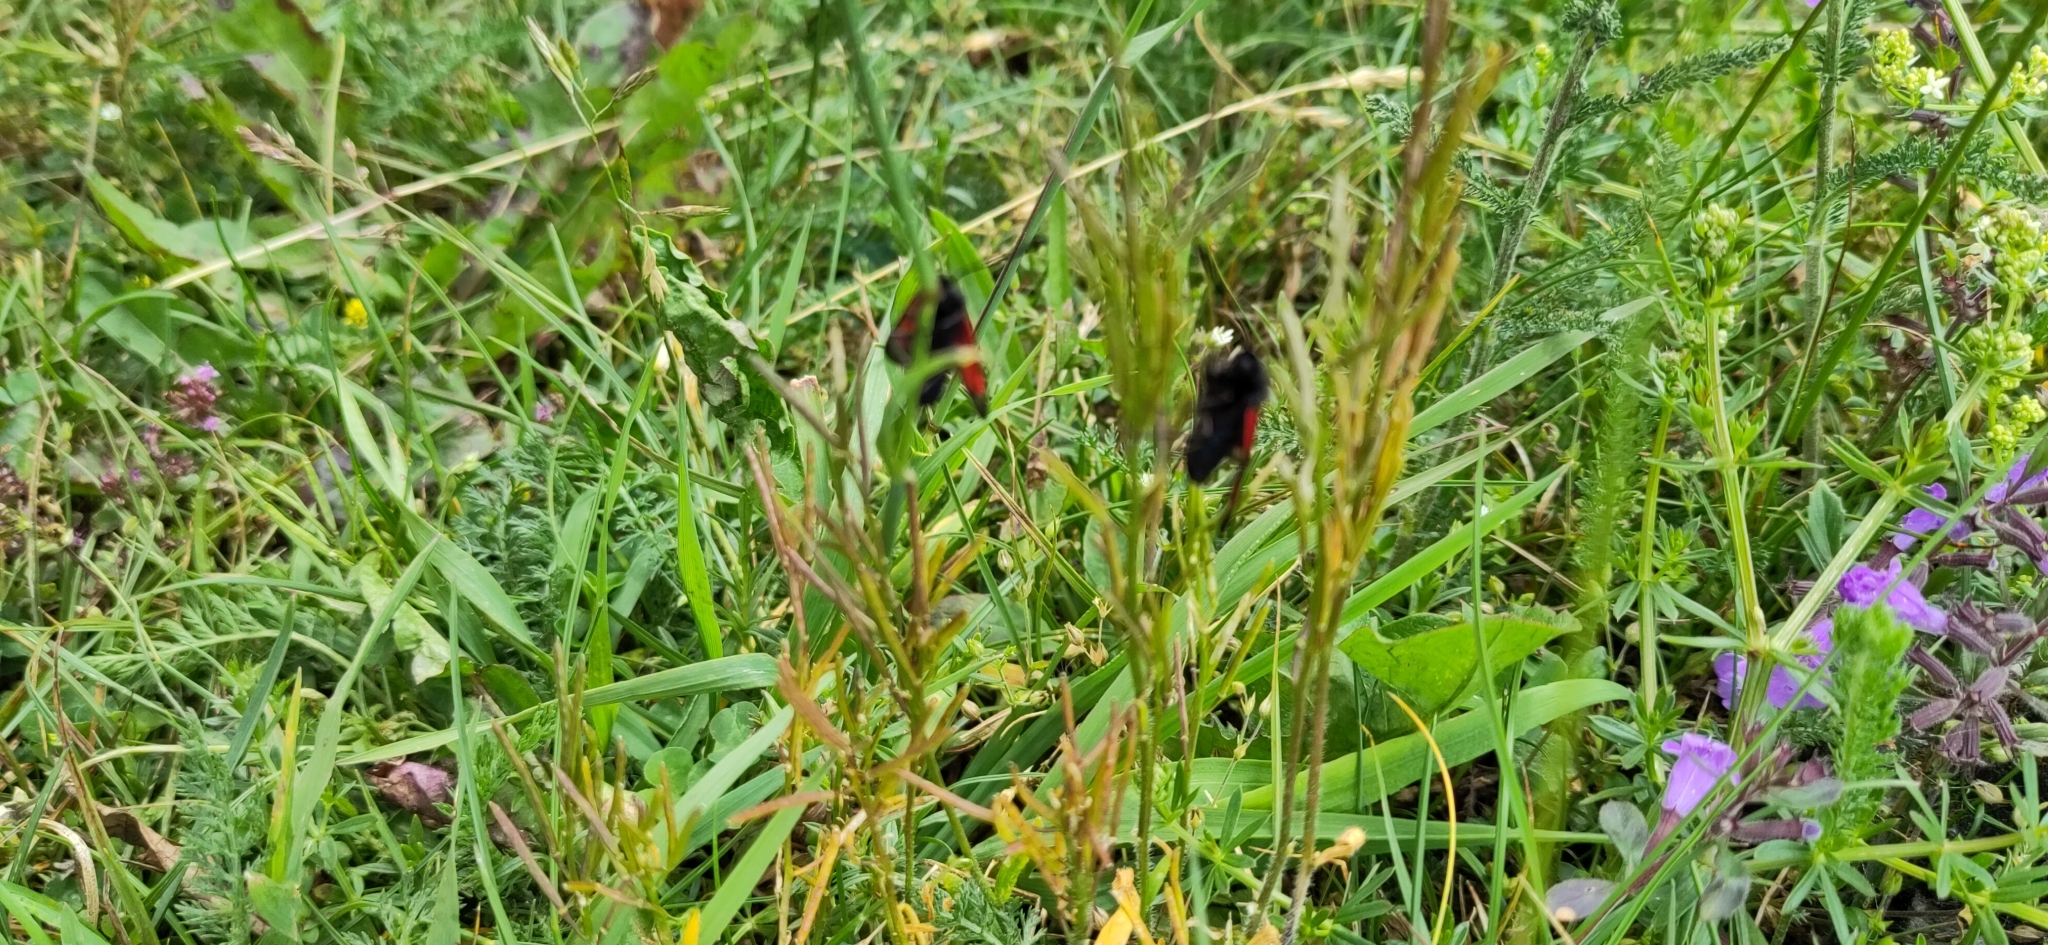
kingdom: Animalia
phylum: Arthropoda
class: Insecta
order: Lepidoptera
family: Zygaenidae
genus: Zygaena
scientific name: Zygaena purpuralis
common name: Transparent burnet
